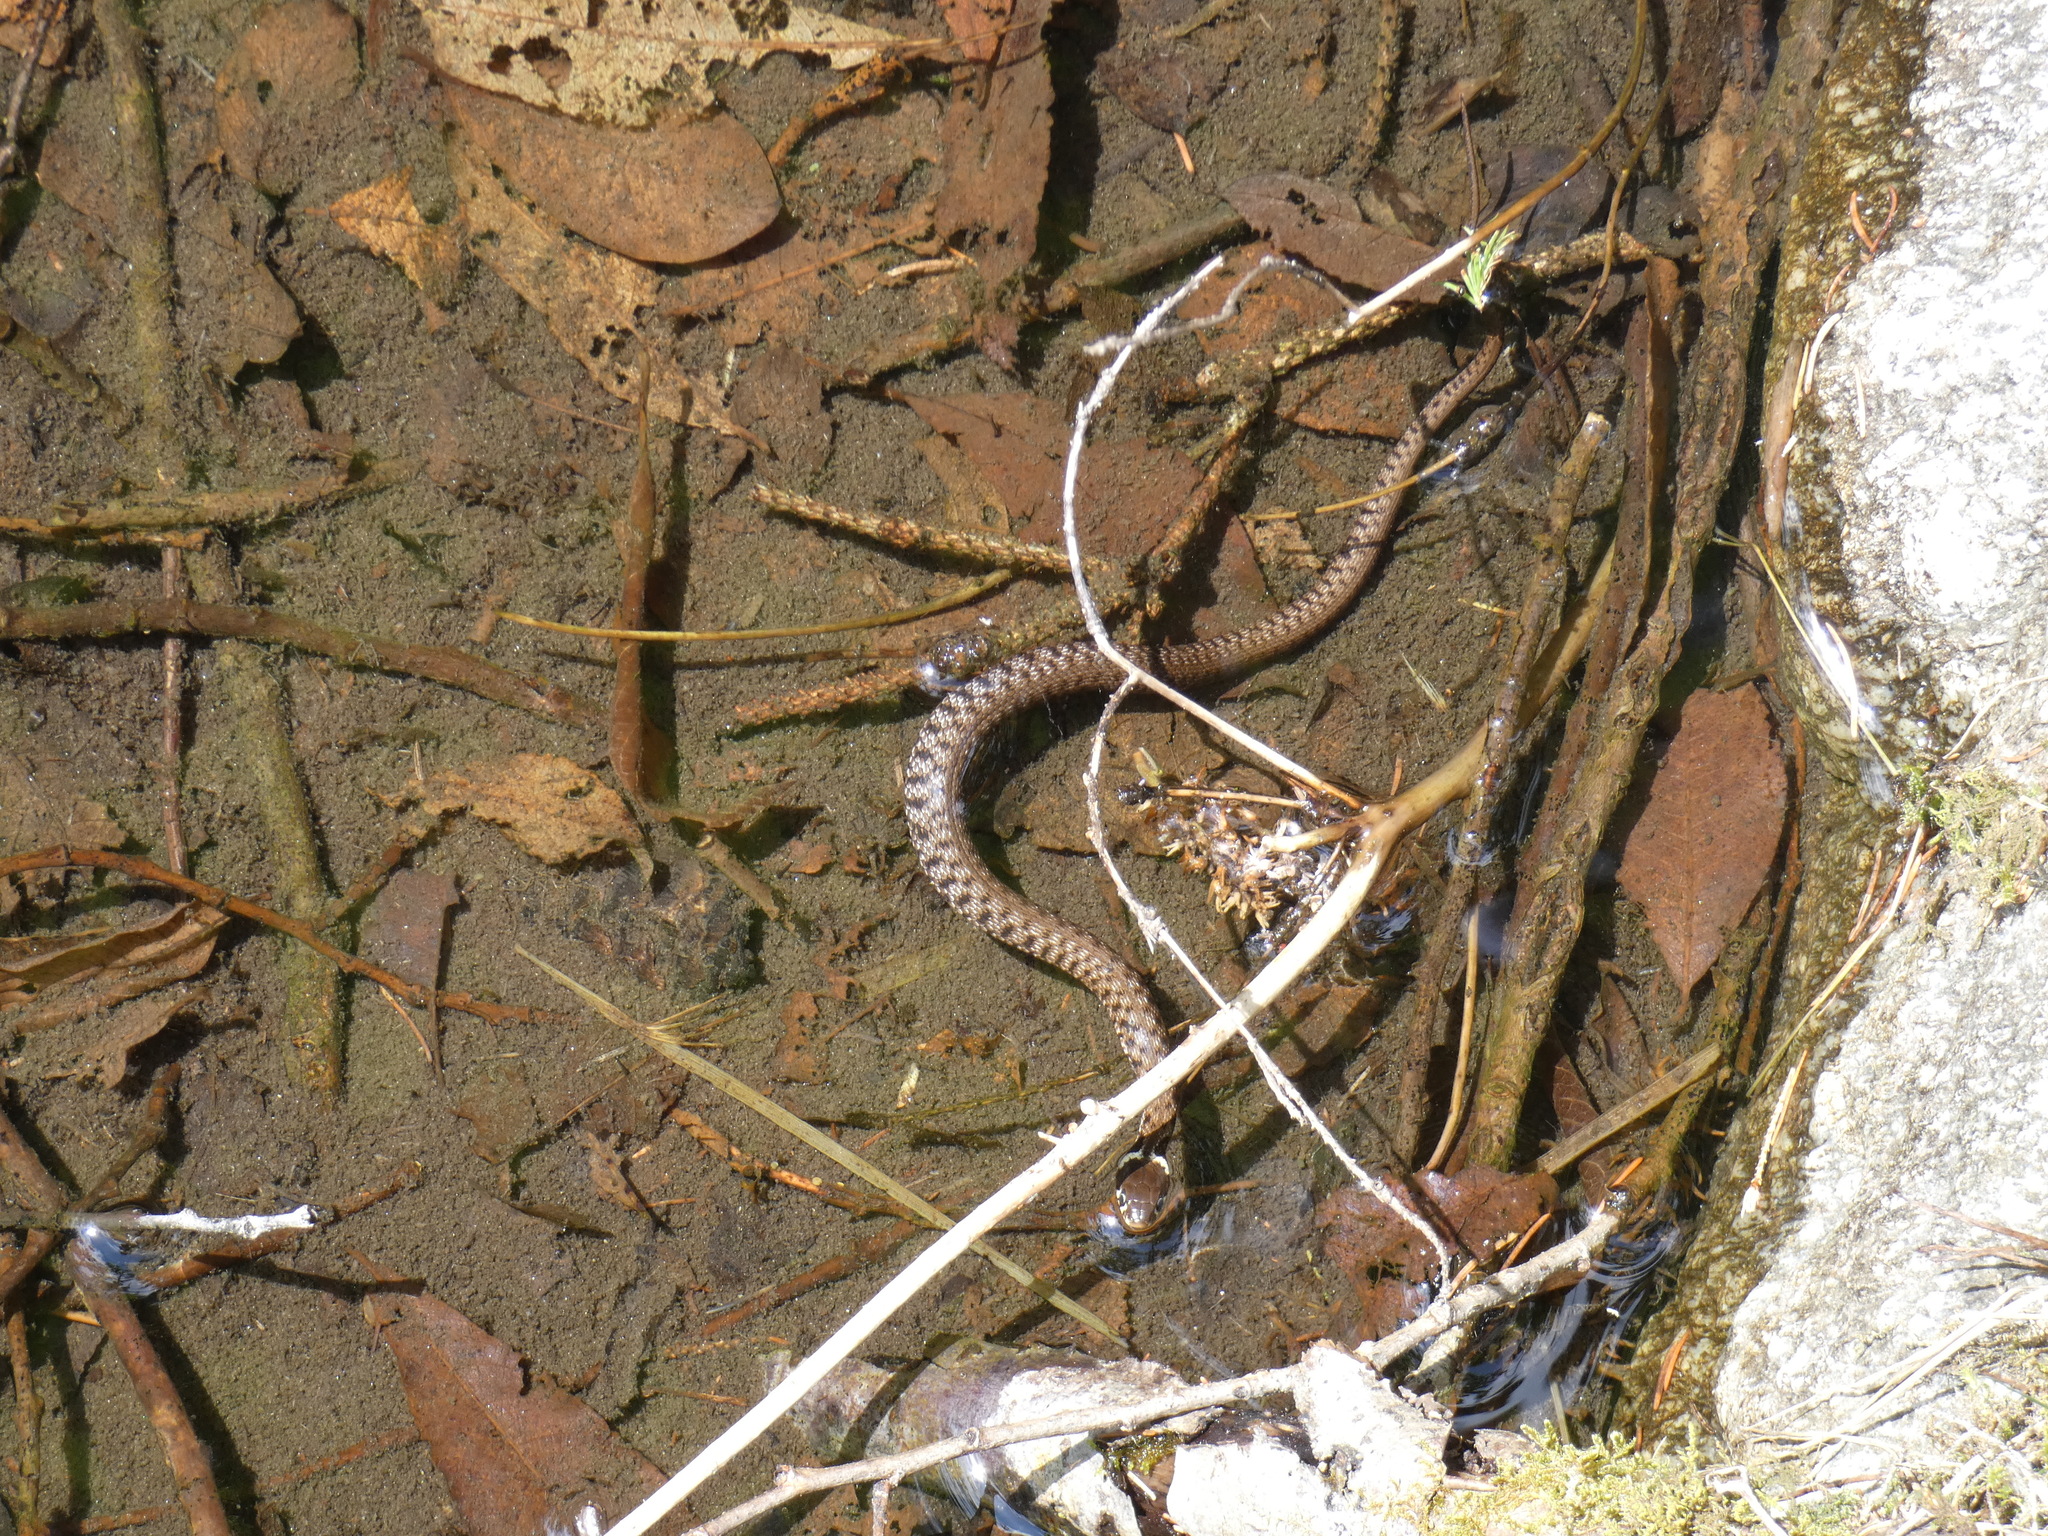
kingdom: Animalia
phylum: Chordata
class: Squamata
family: Colubridae
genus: Natrix
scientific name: Natrix helvetica
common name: Banded grass snake
